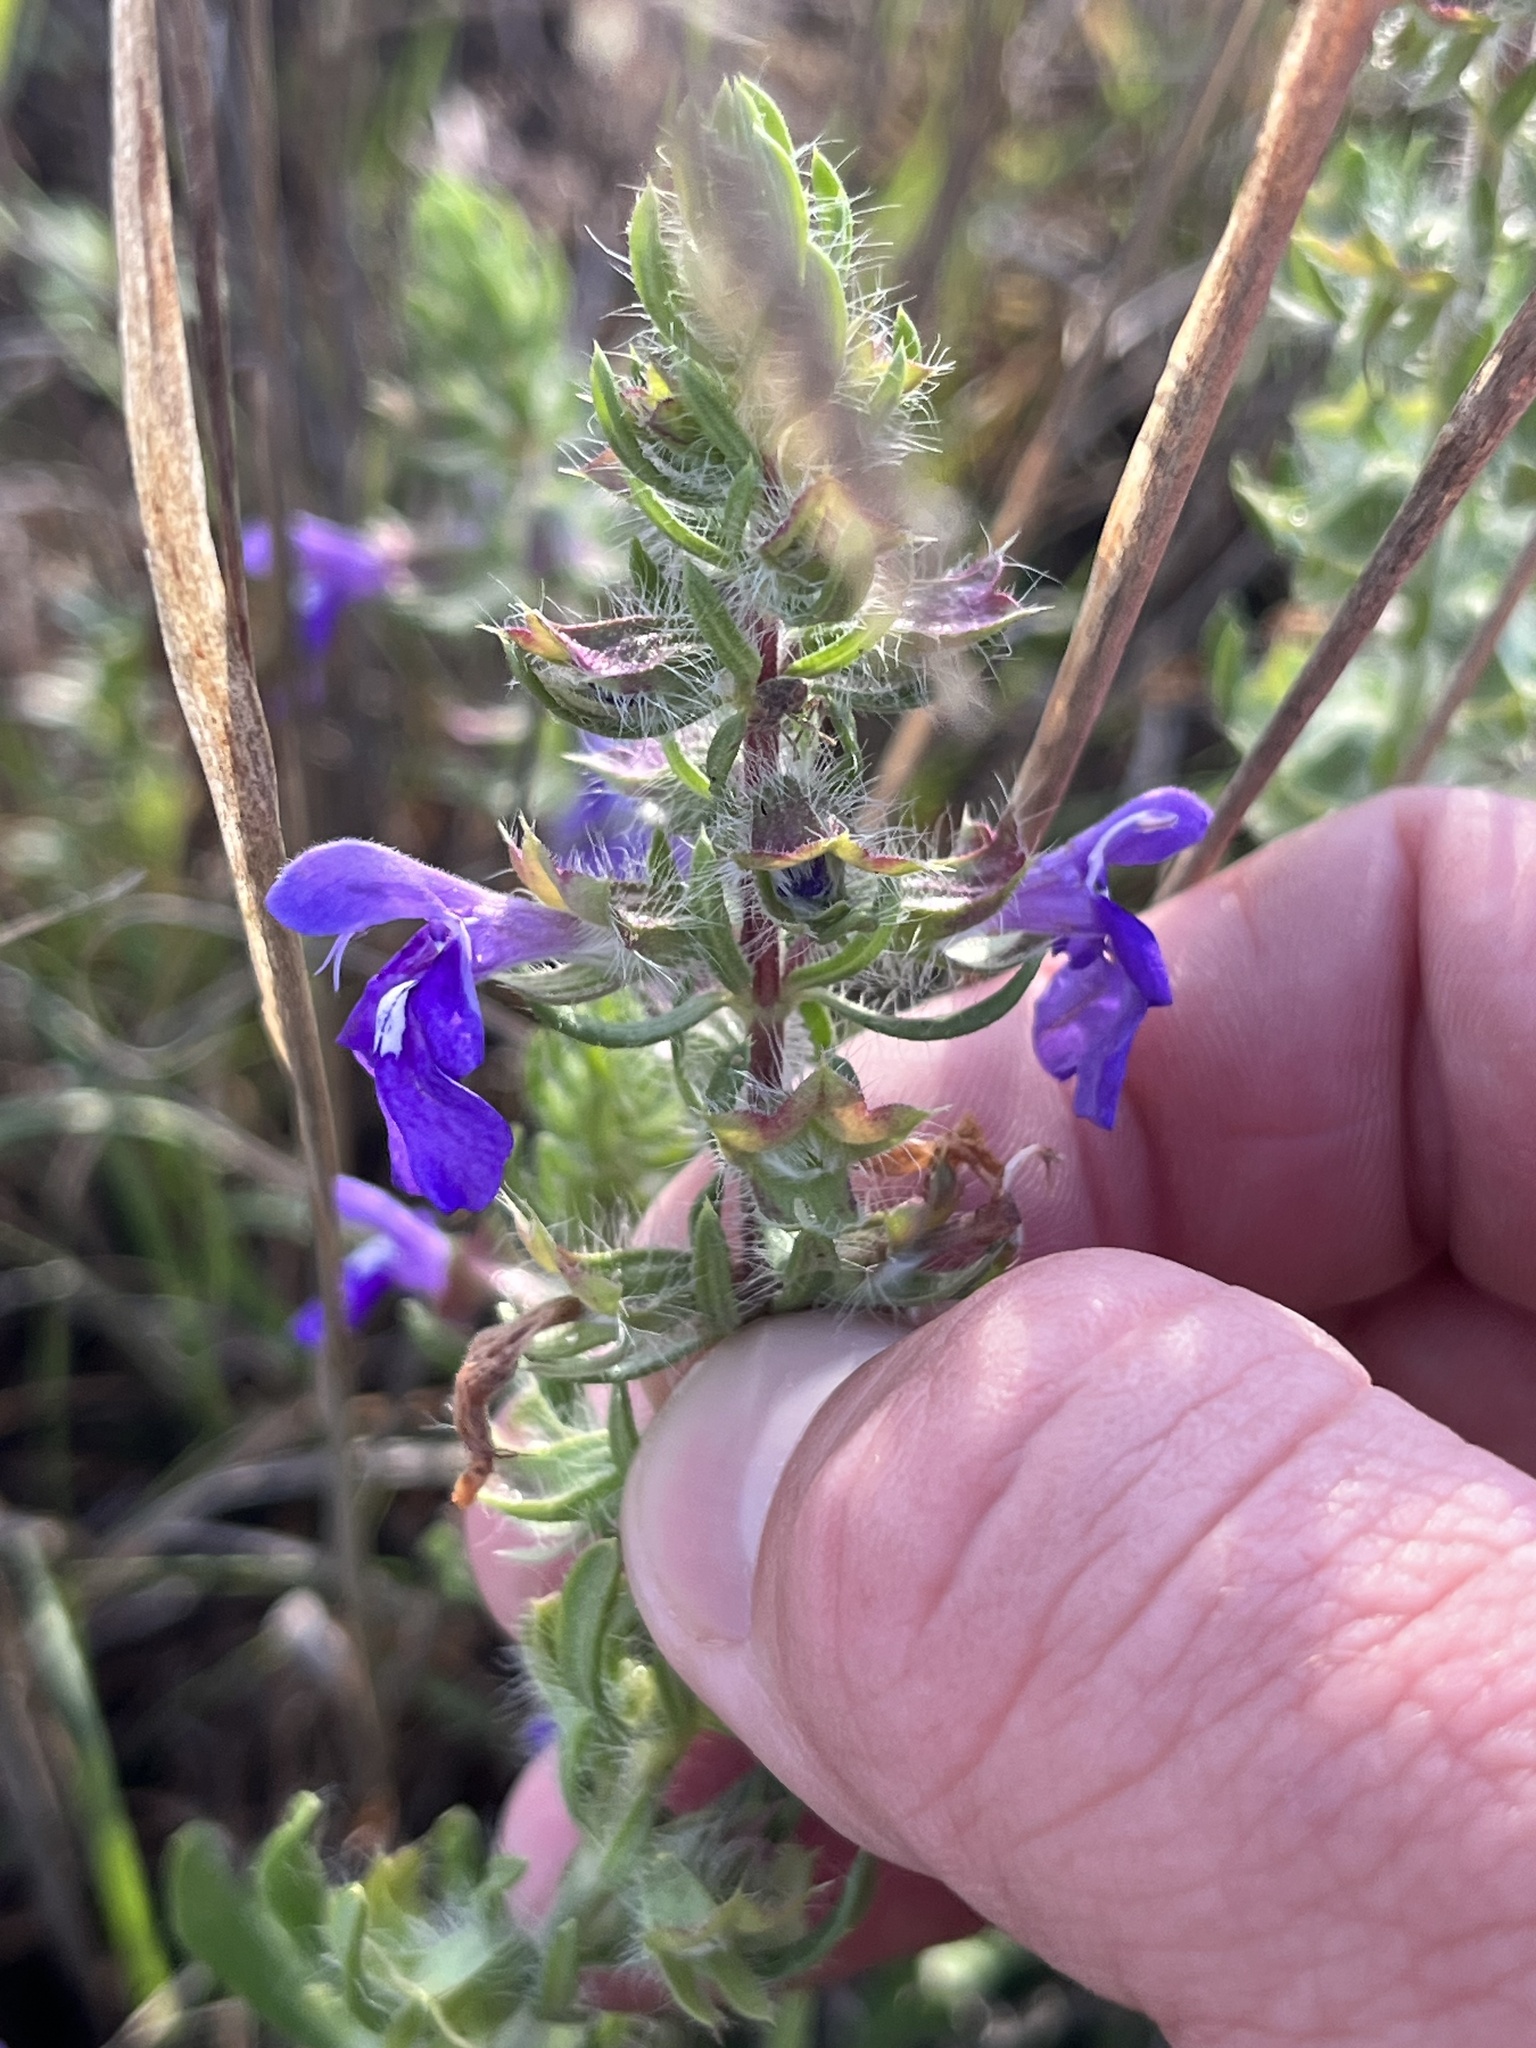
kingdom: Plantae
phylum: Tracheophyta
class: Magnoliopsida
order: Lamiales
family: Lamiaceae
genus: Salvia
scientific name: Salvia texana
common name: Texas sage
